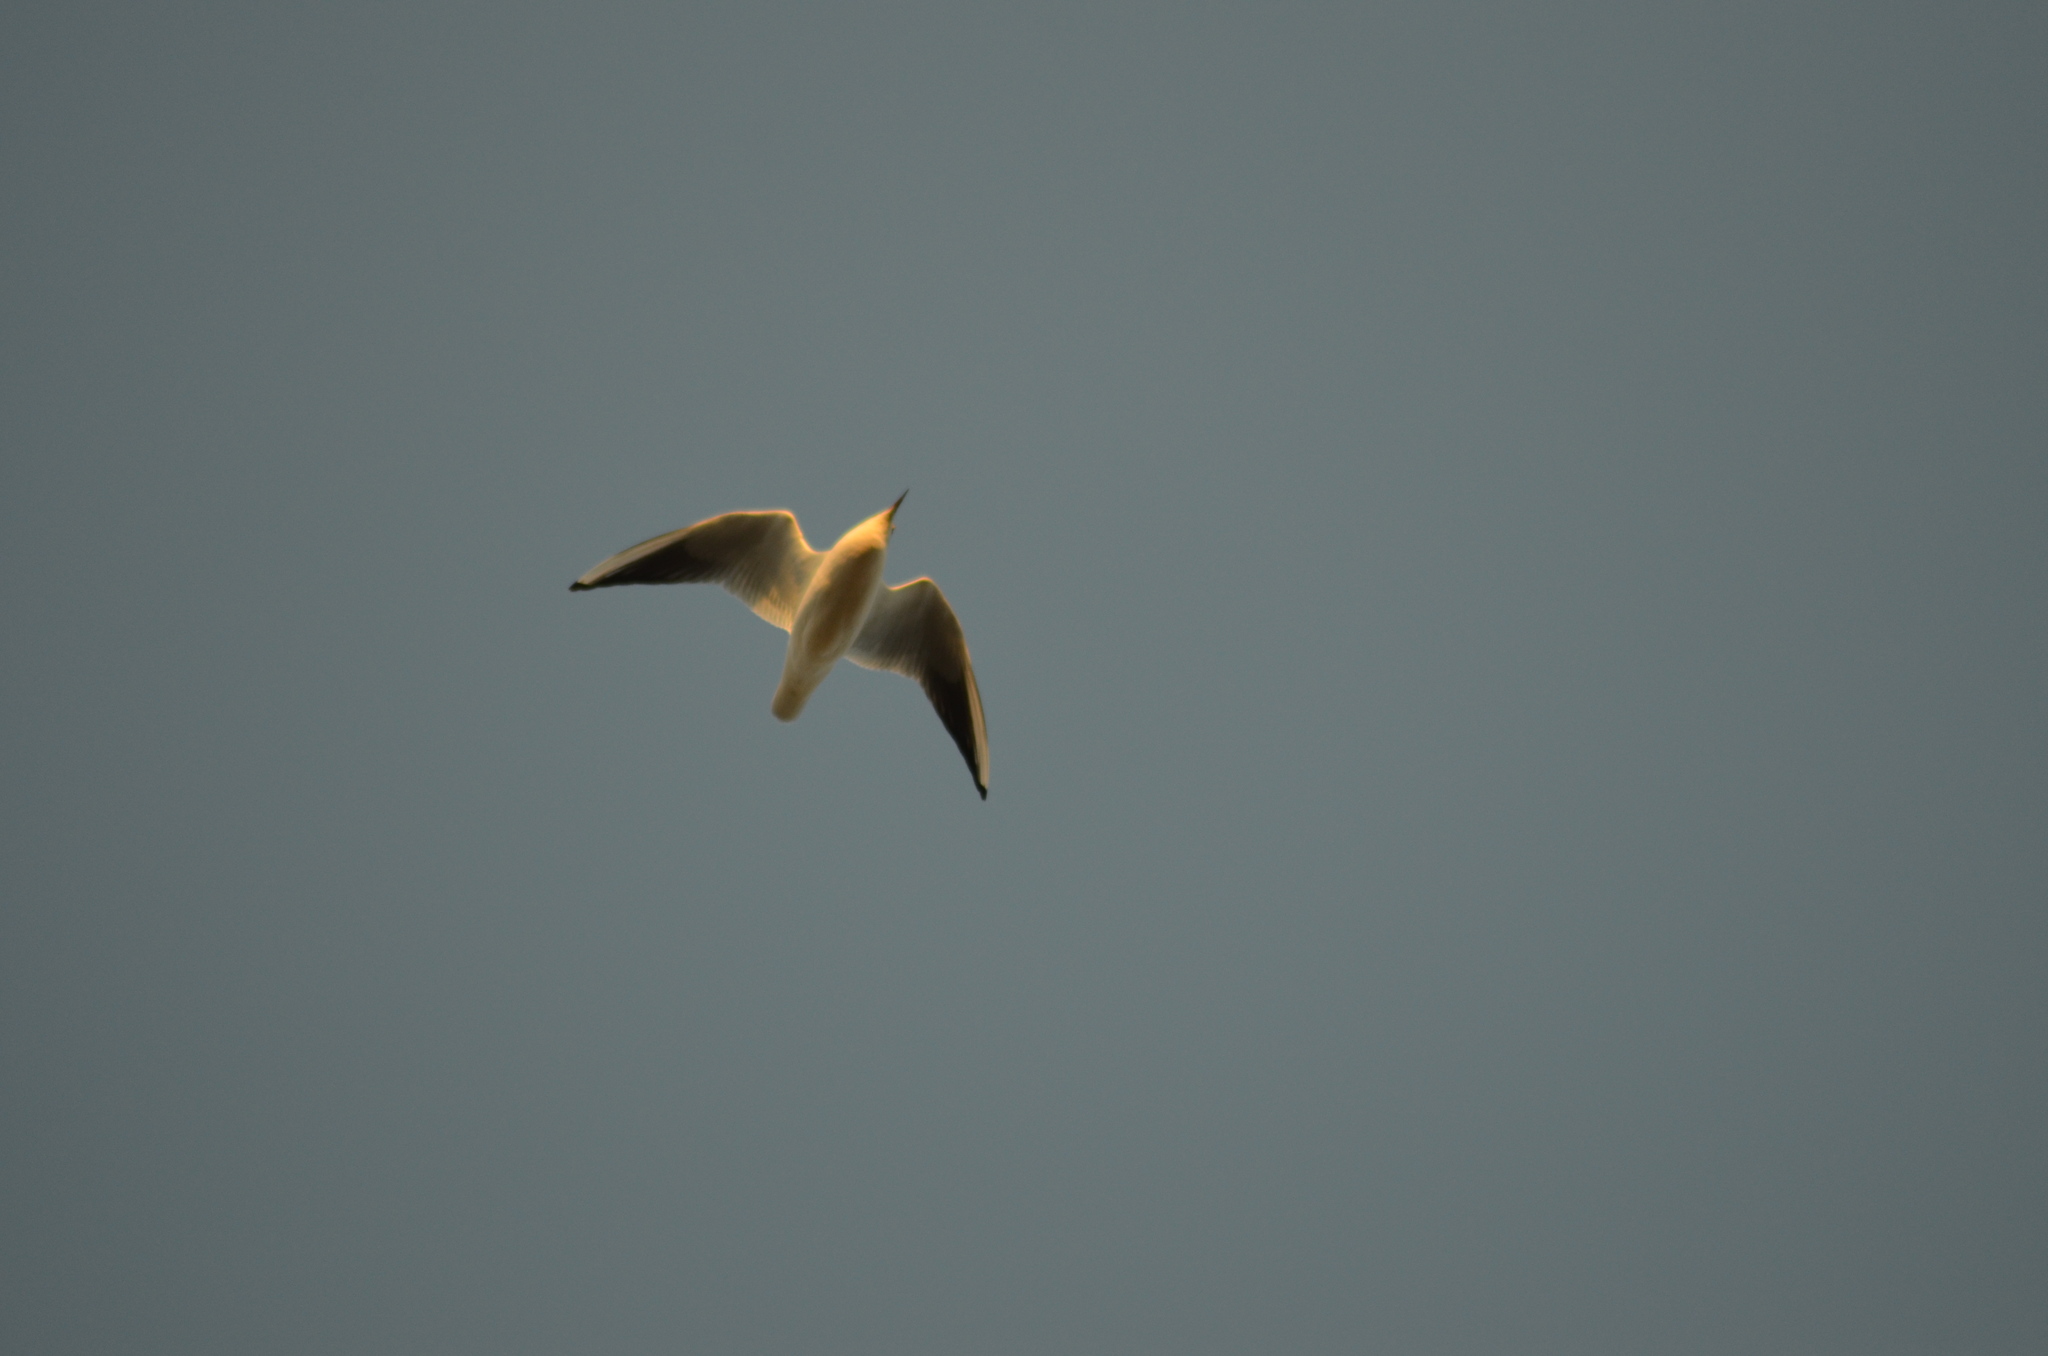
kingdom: Animalia
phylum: Chordata
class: Aves
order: Charadriiformes
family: Laridae
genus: Chroicocephalus
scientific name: Chroicocephalus ridibundus
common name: Black-headed gull
